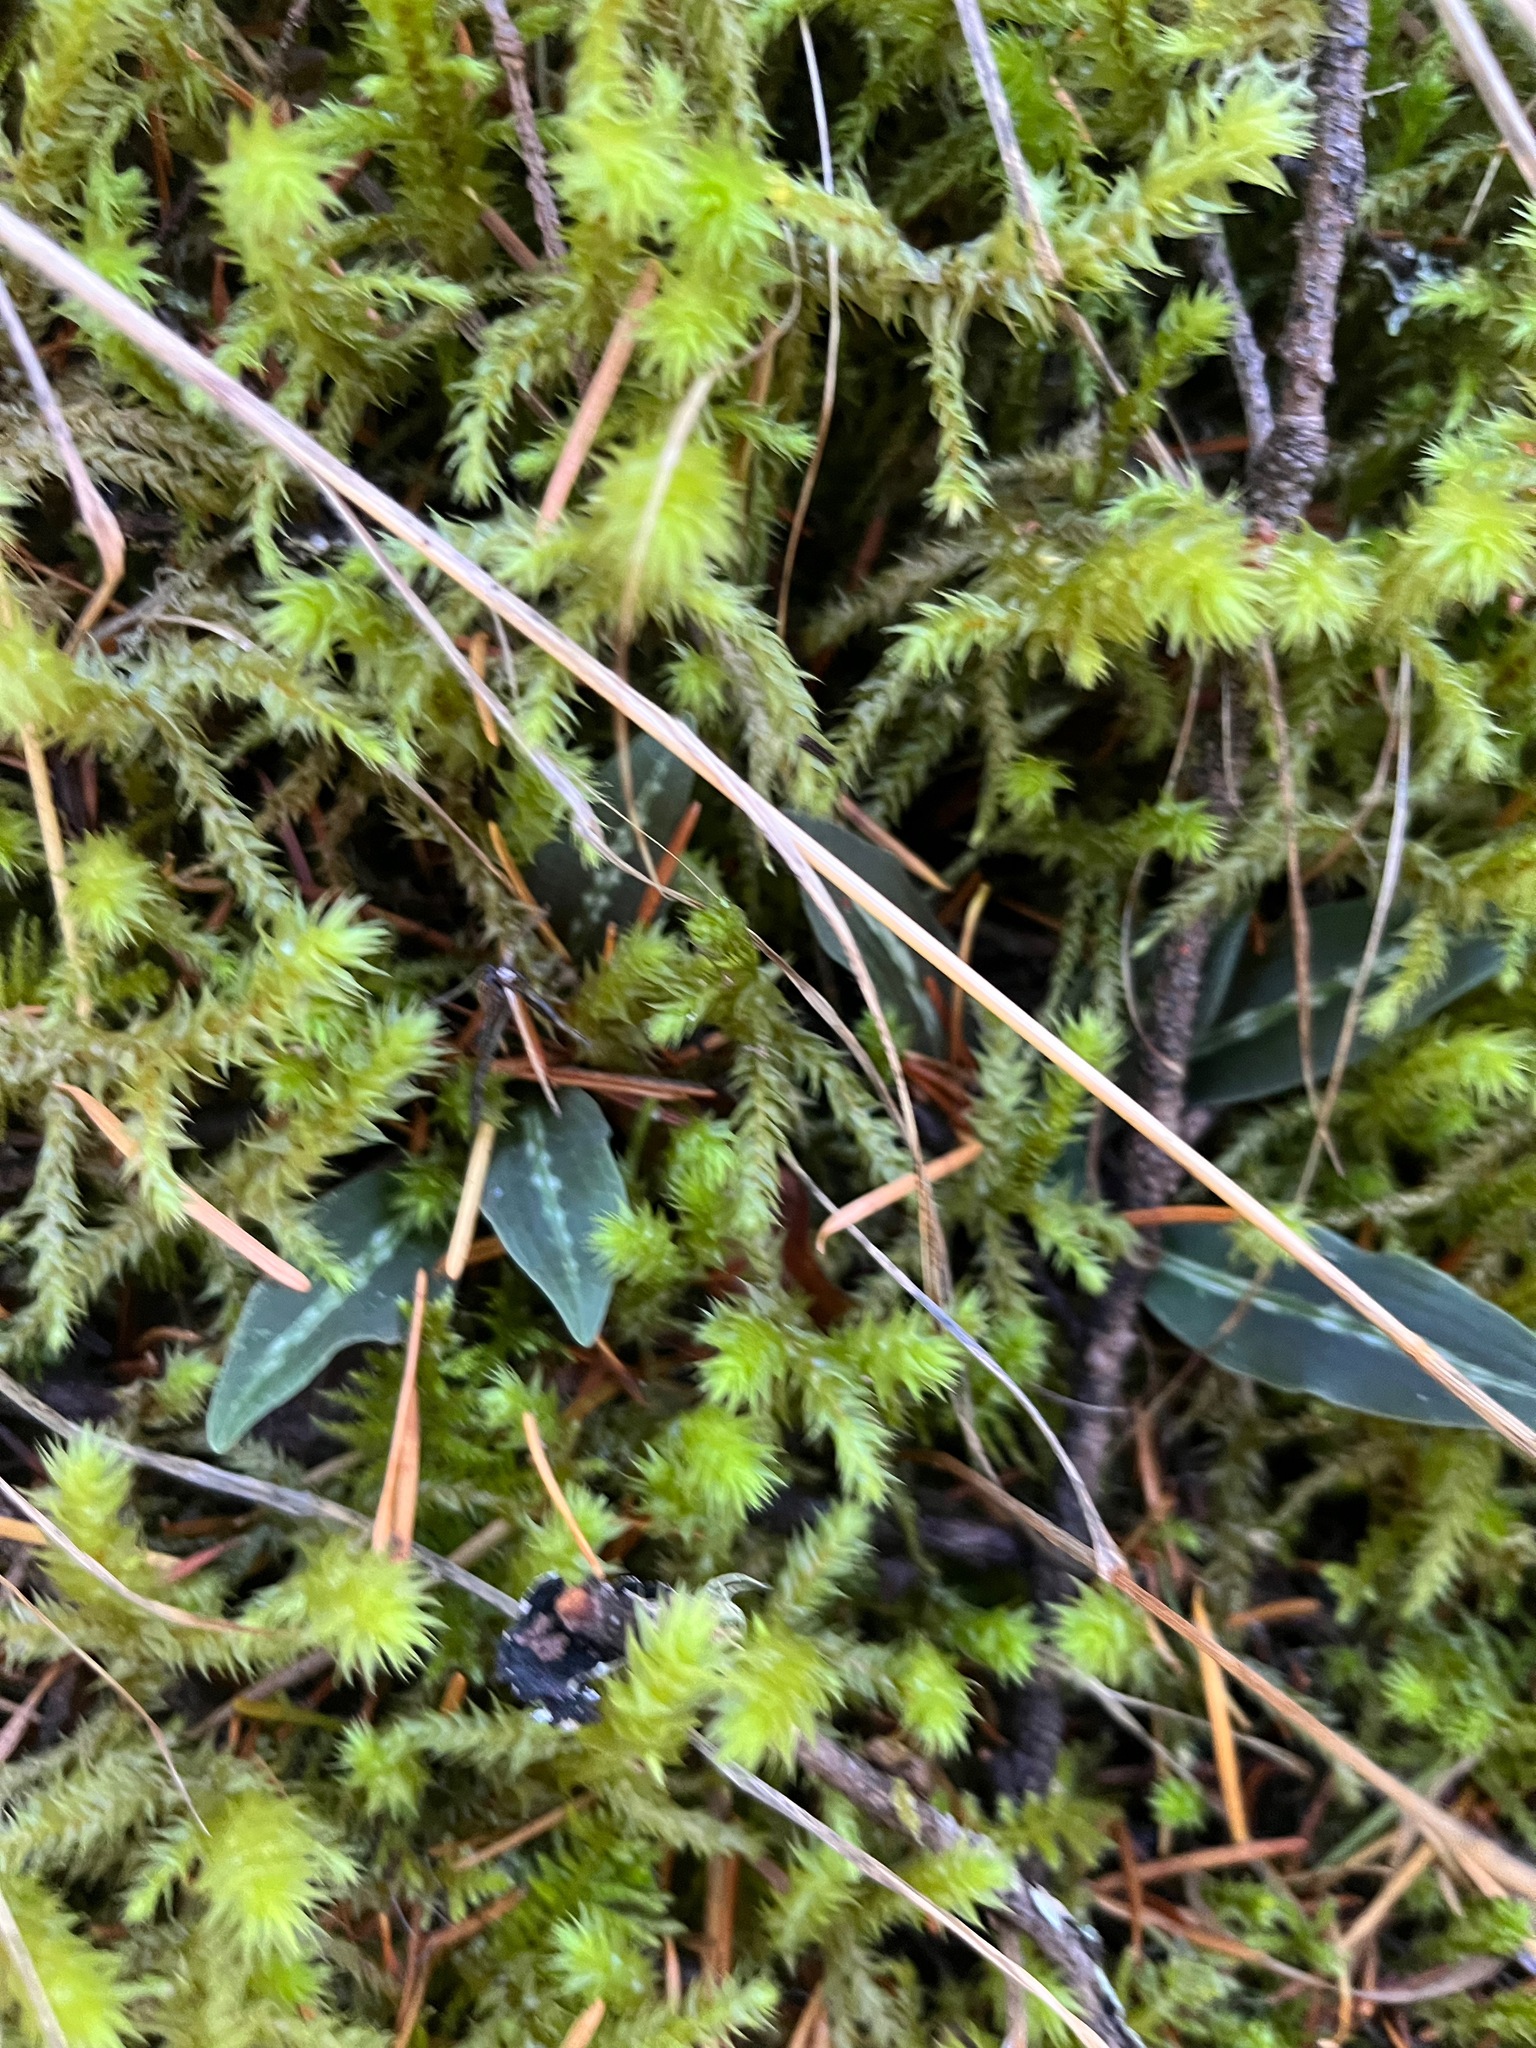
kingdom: Plantae
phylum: Tracheophyta
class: Liliopsida
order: Asparagales
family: Orchidaceae
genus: Goodyera
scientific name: Goodyera oblongifolia
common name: Giant rattlesnake-plantain
